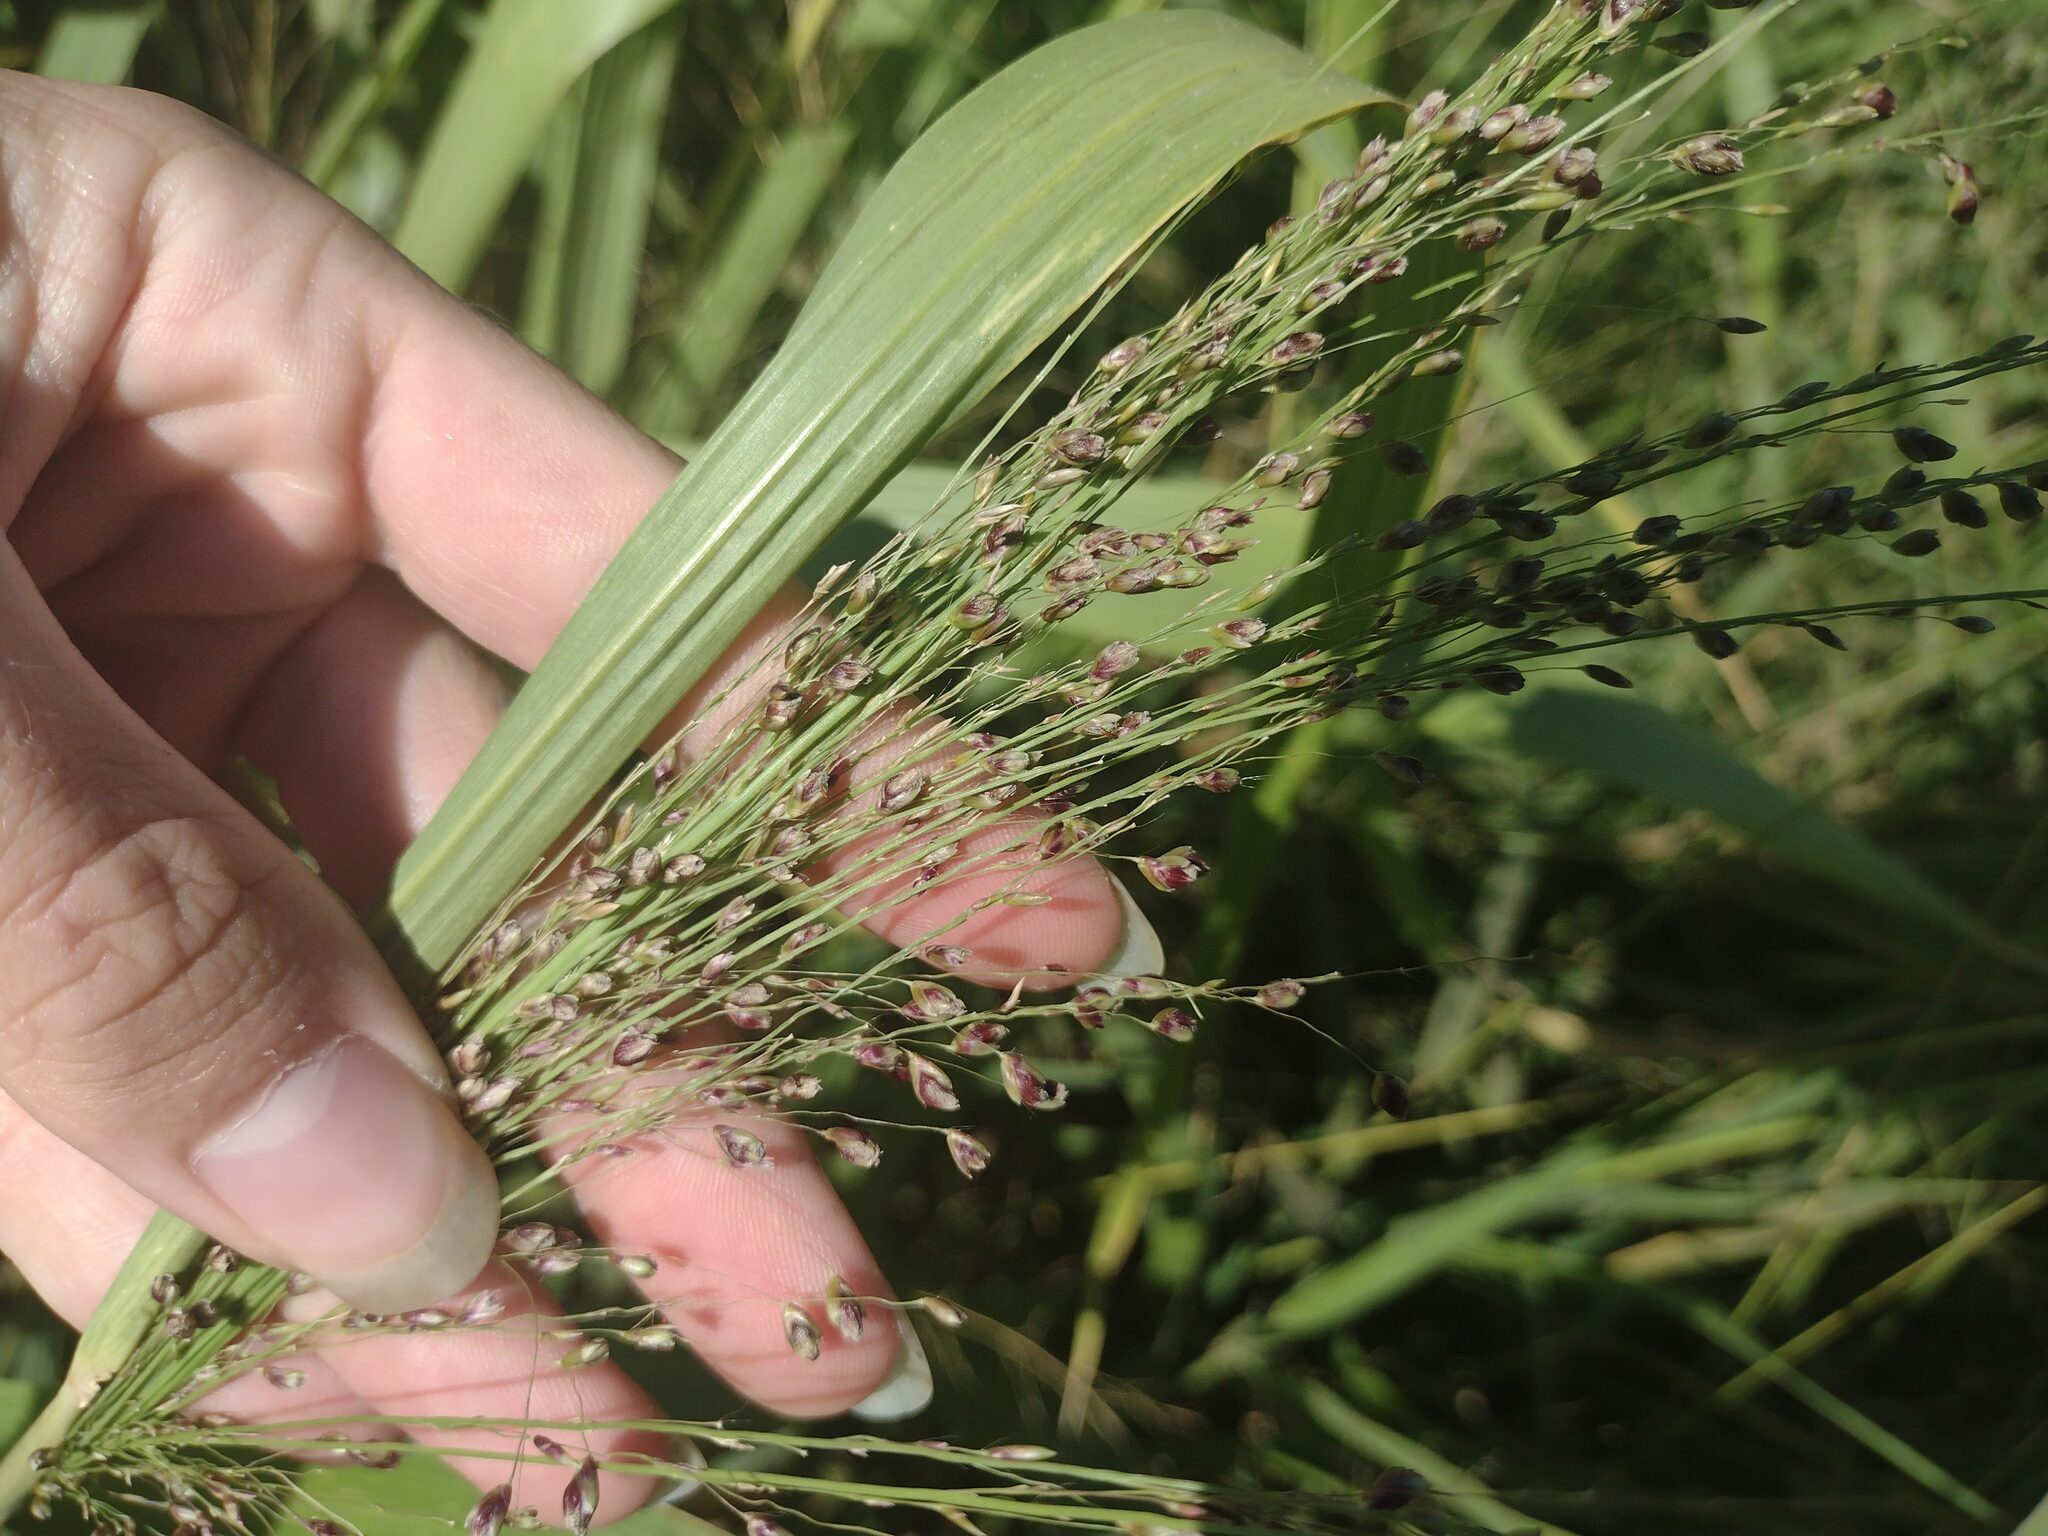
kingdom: Fungi
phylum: Basidiomycota
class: Exobasidiomycetes
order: Tilletiales
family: Tilletiaceae
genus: Conidiosporomyces
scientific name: Conidiosporomyces ayresii
